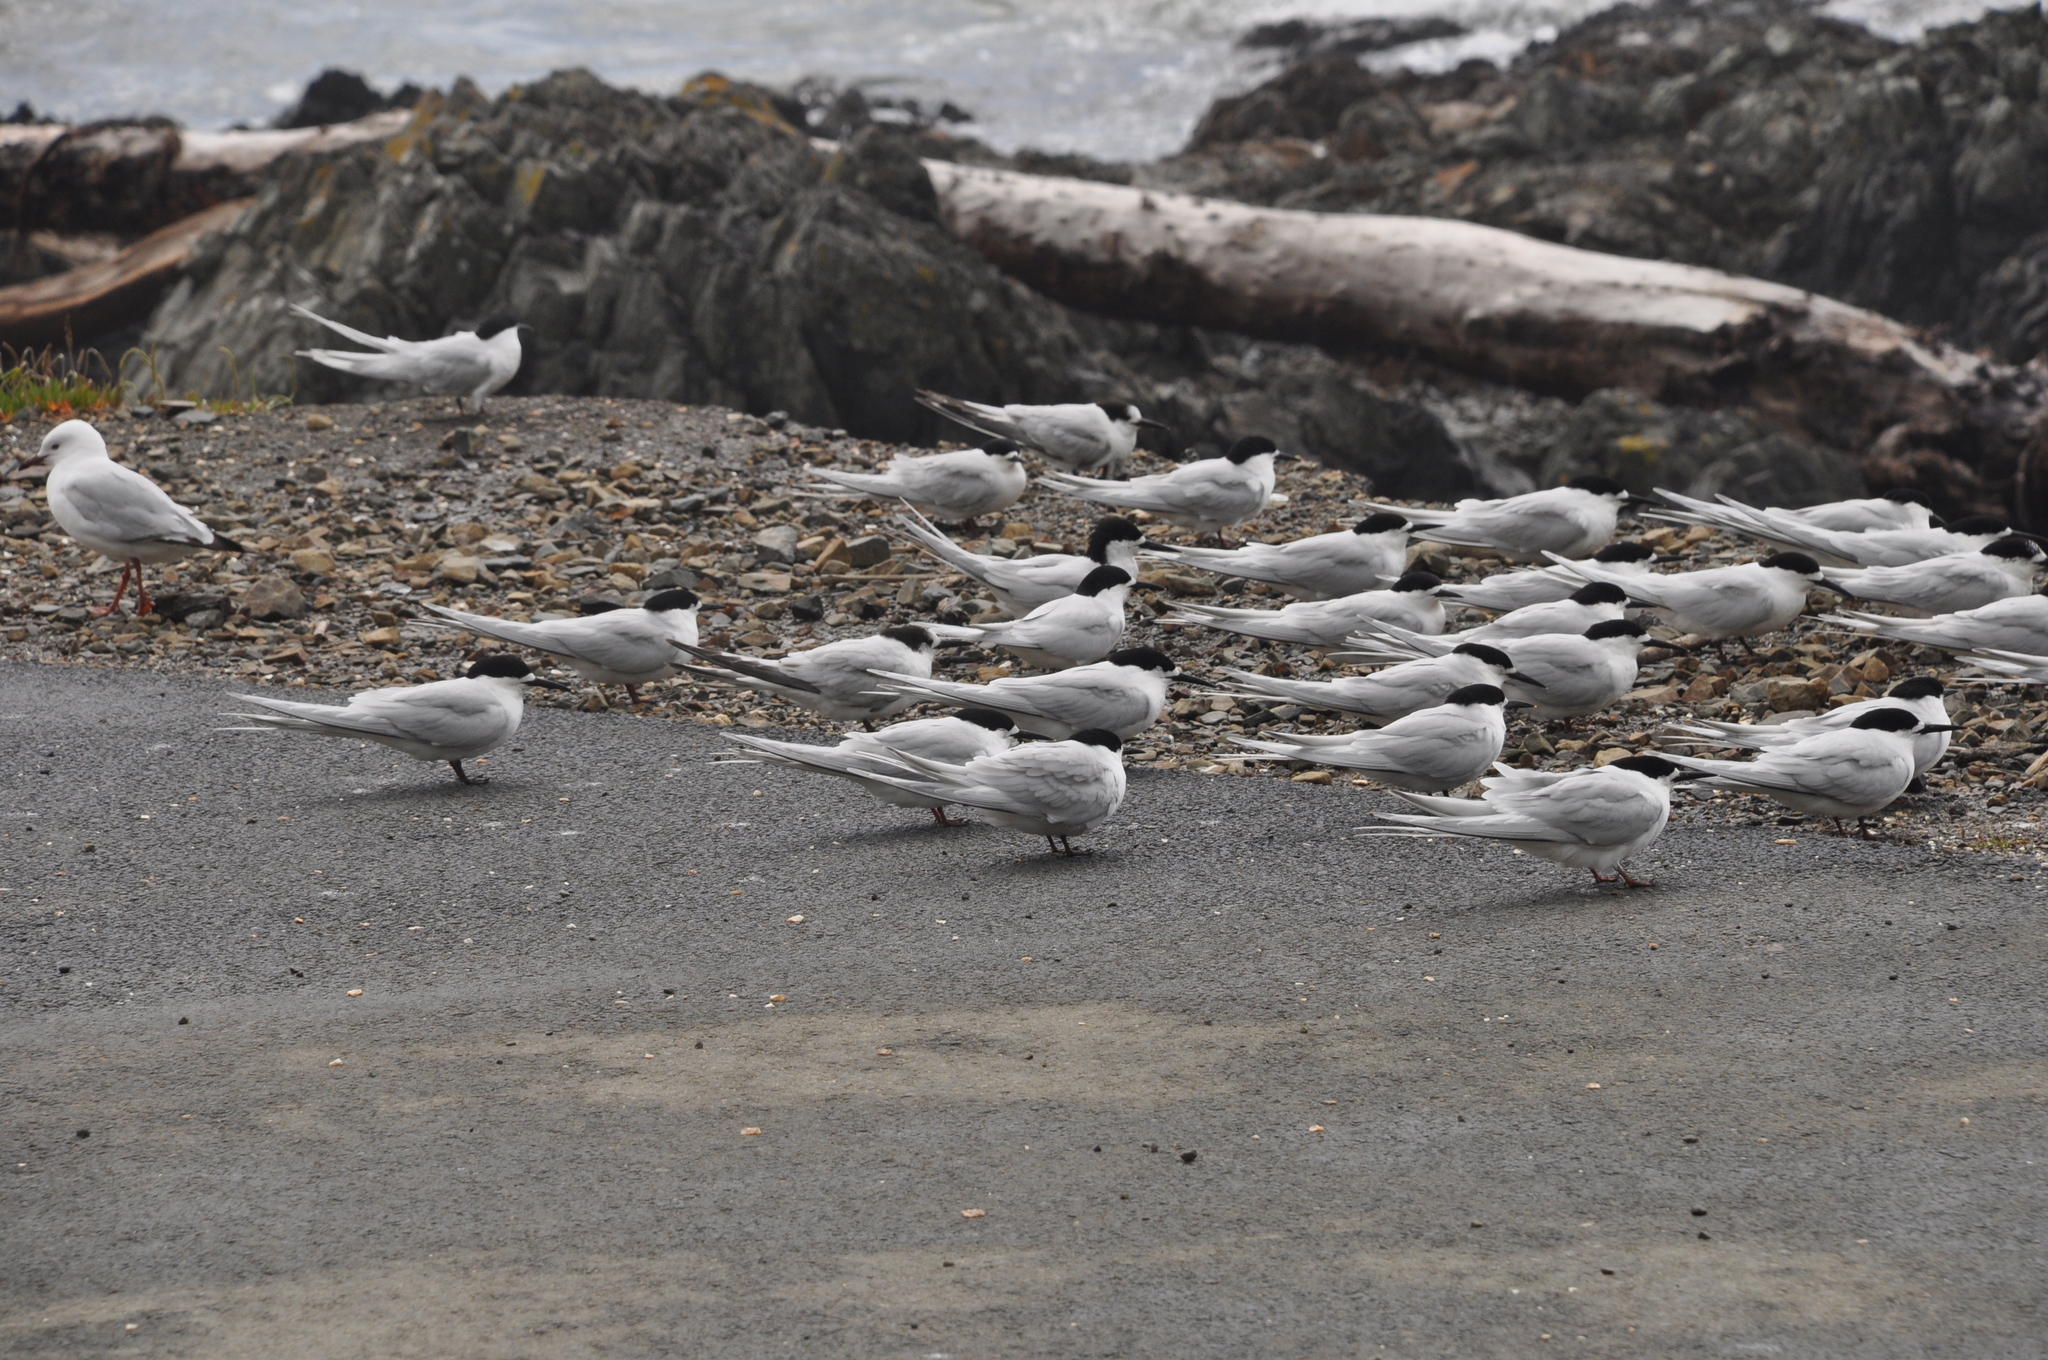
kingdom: Animalia
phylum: Chordata
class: Aves
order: Charadriiformes
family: Laridae
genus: Sterna
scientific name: Sterna striata
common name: White-fronted tern
